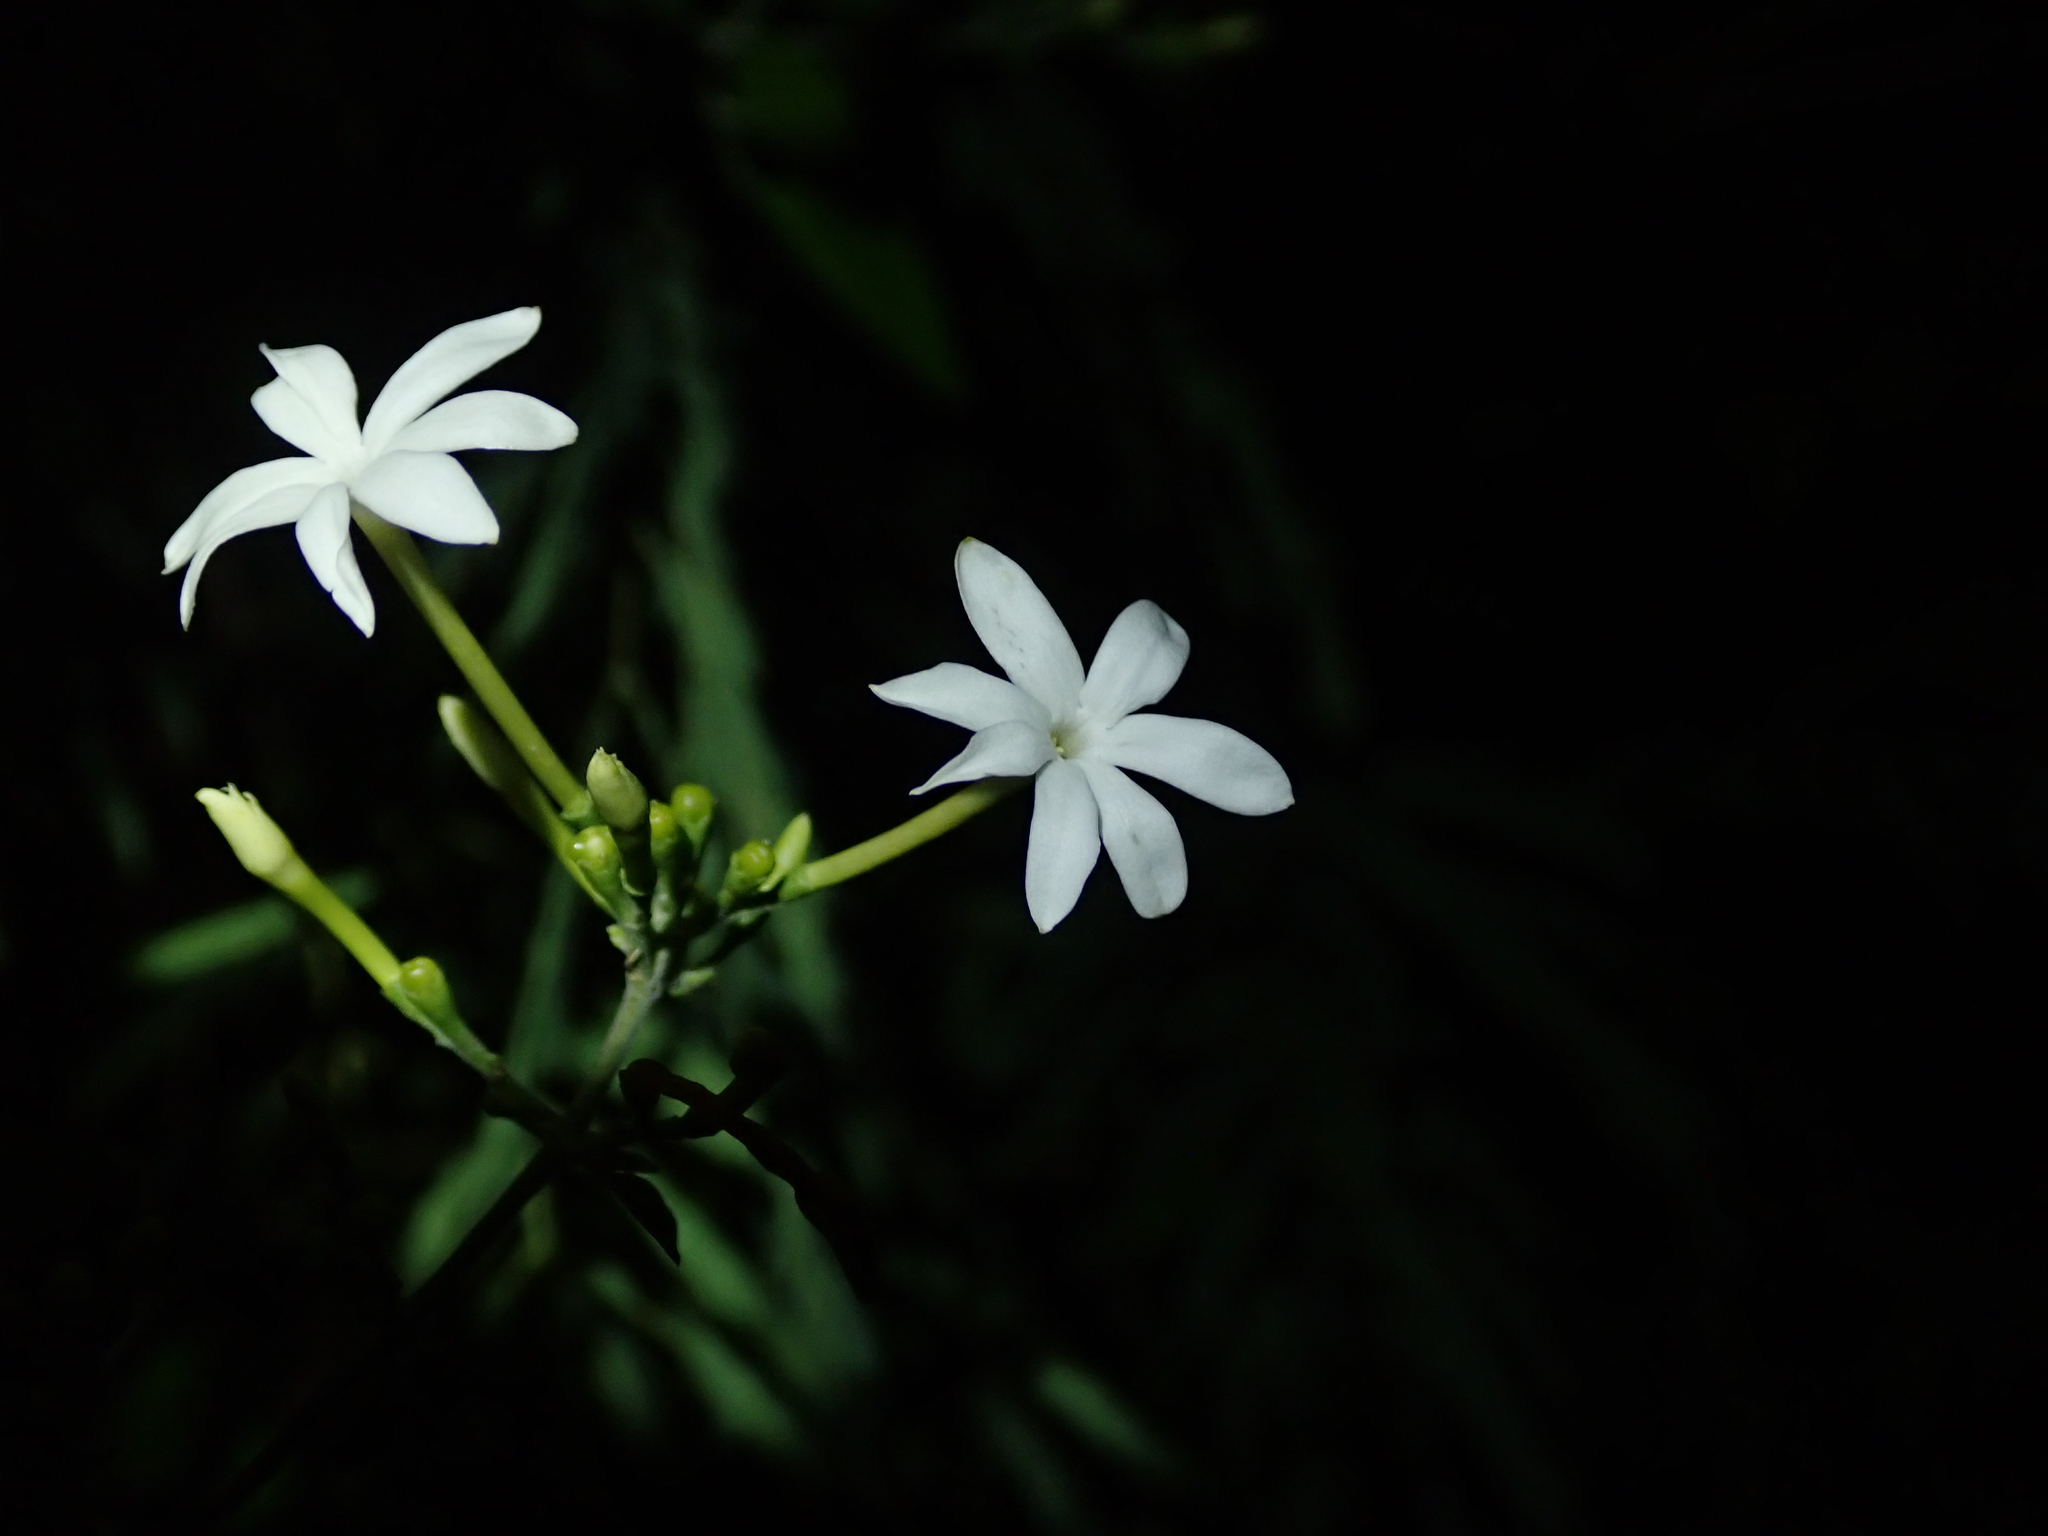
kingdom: Plantae
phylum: Tracheophyta
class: Magnoliopsida
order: Lamiales
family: Oleaceae
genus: Jasminum
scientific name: Jasminum fluminense
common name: Brazilian jasmine
